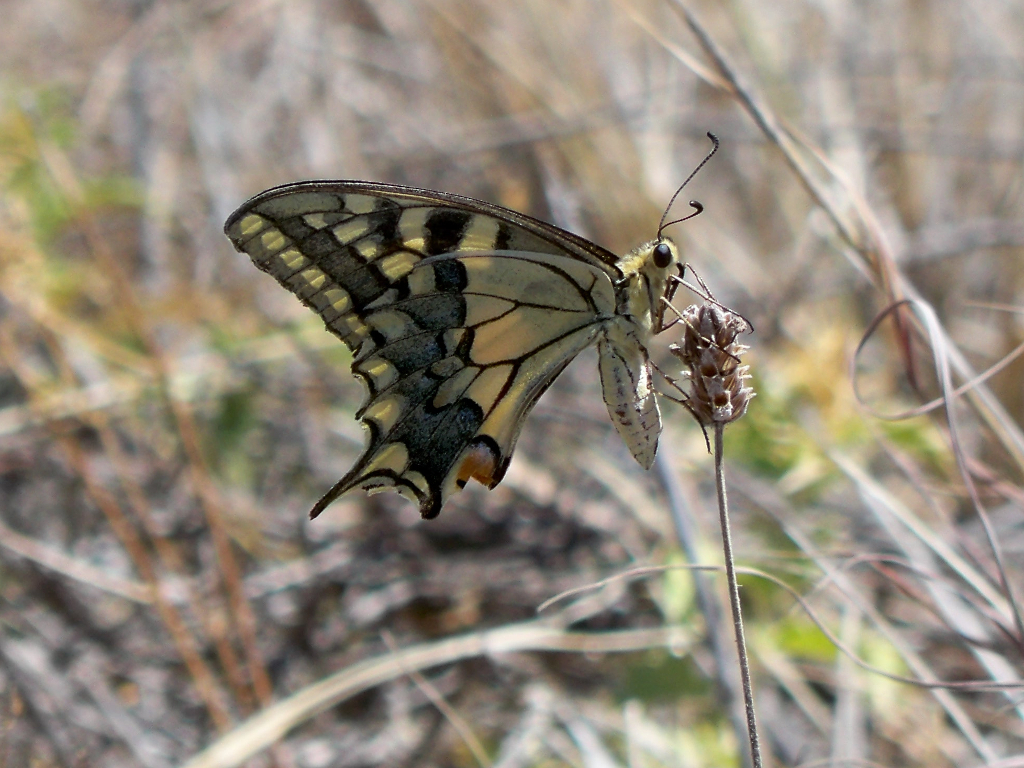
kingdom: Animalia
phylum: Arthropoda
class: Insecta
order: Lepidoptera
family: Papilionidae
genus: Papilio
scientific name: Papilio machaon
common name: Swallowtail
